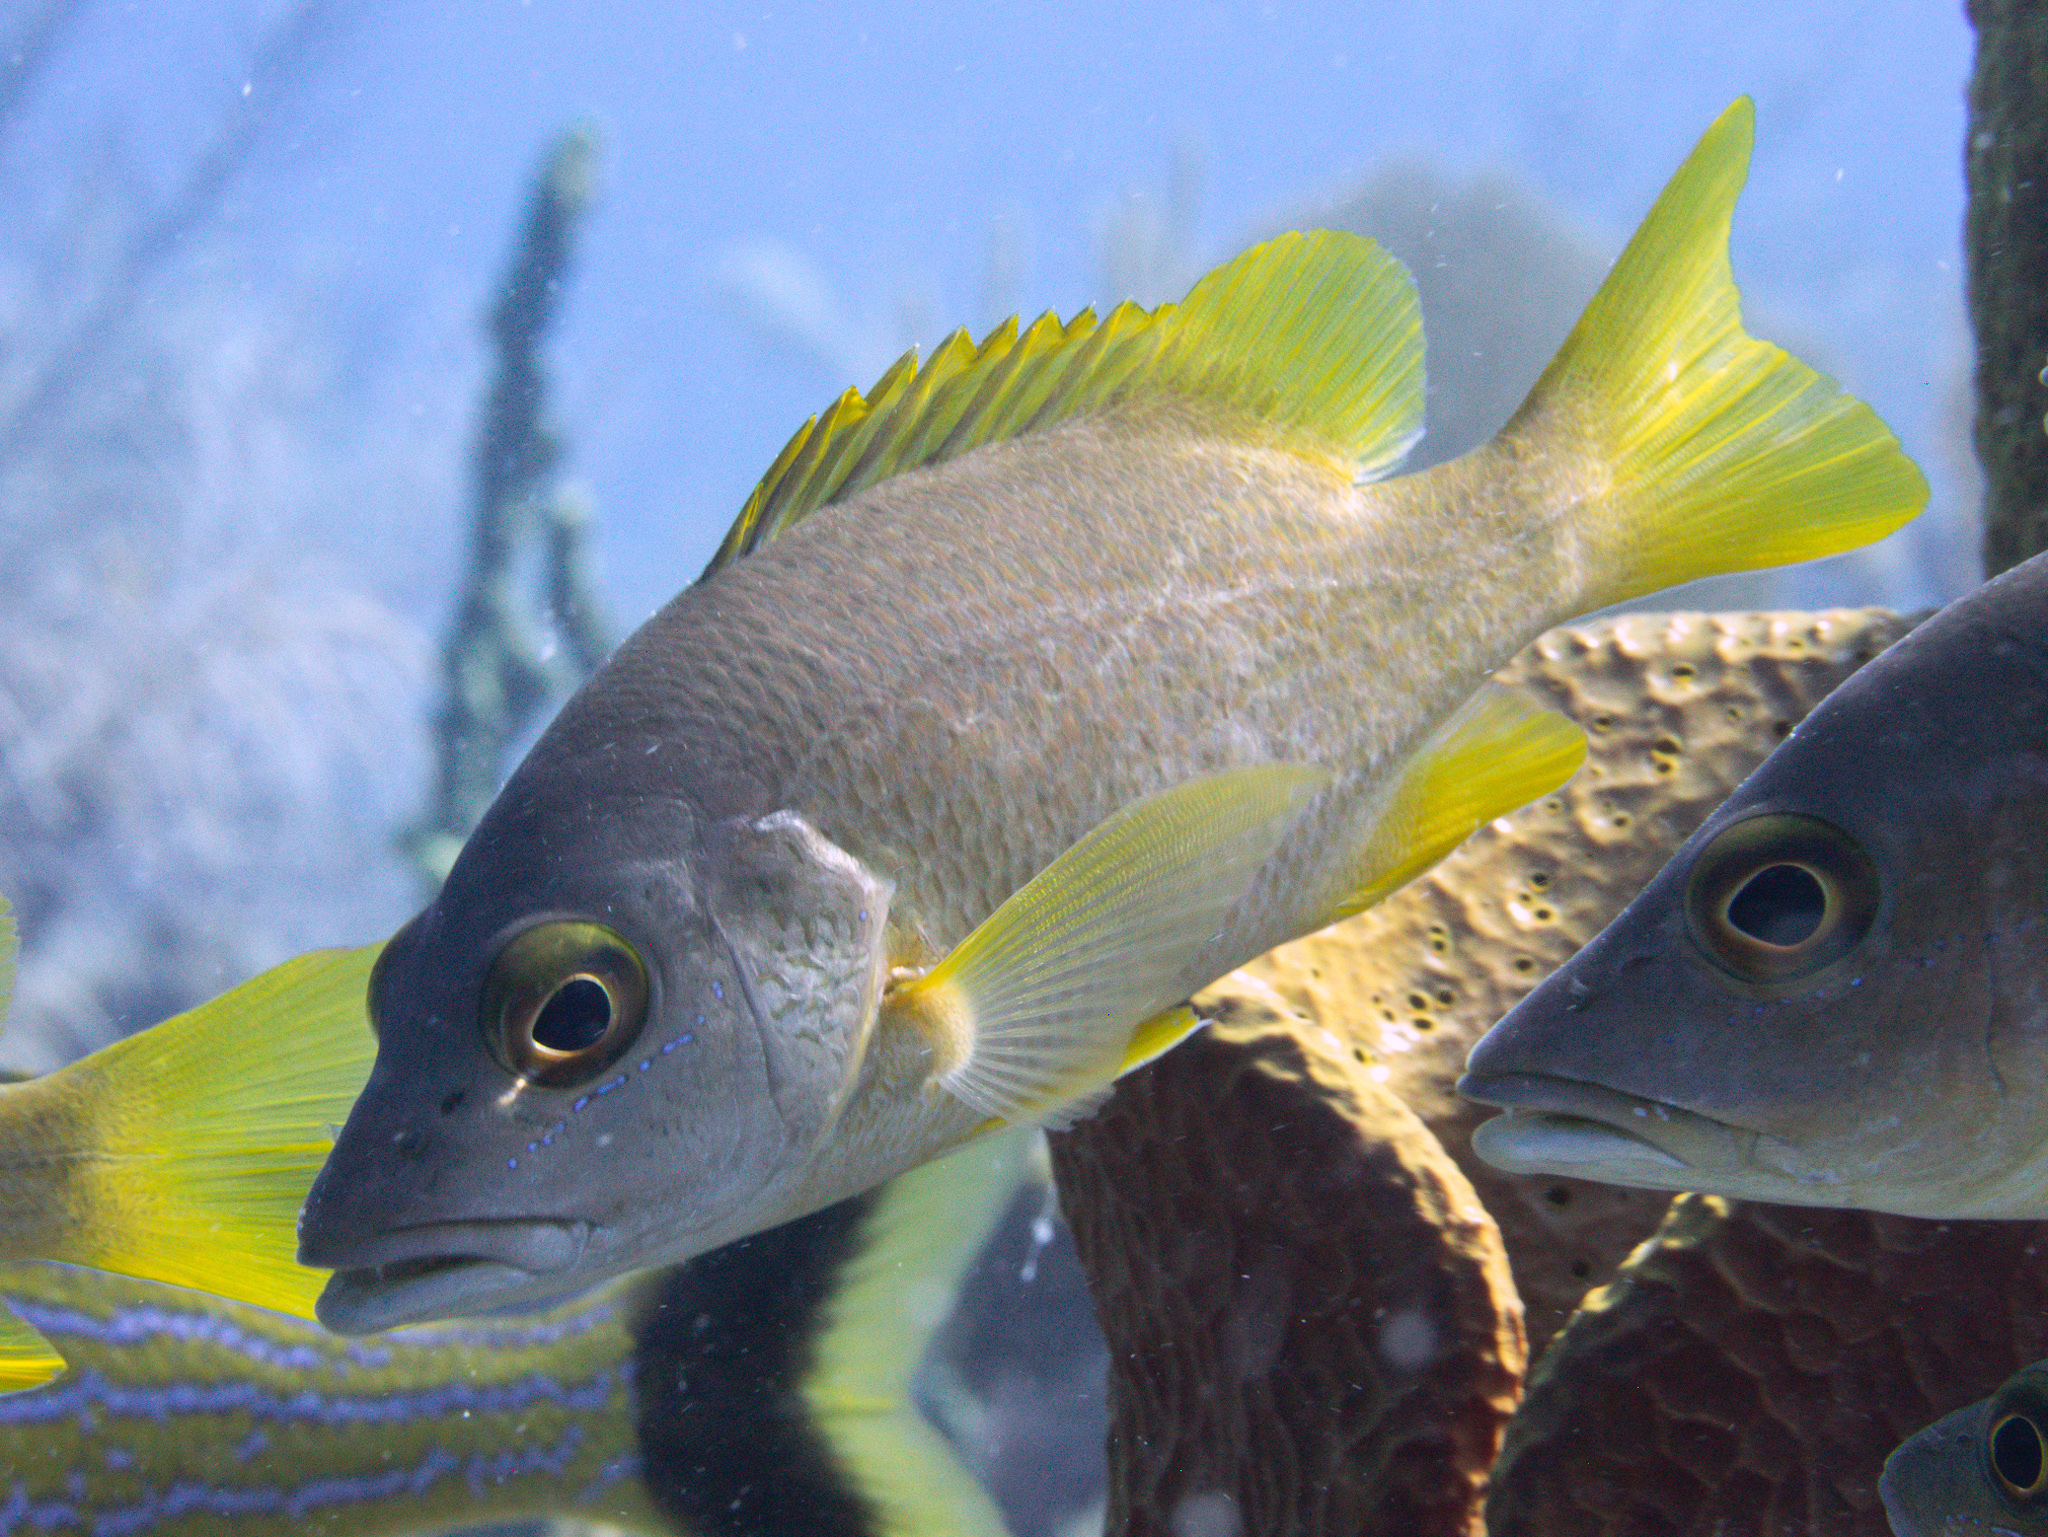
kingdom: Animalia
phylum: Chordata
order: Perciformes
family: Lutjanidae
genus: Lutjanus
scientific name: Lutjanus apodus
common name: Schoolmaster
